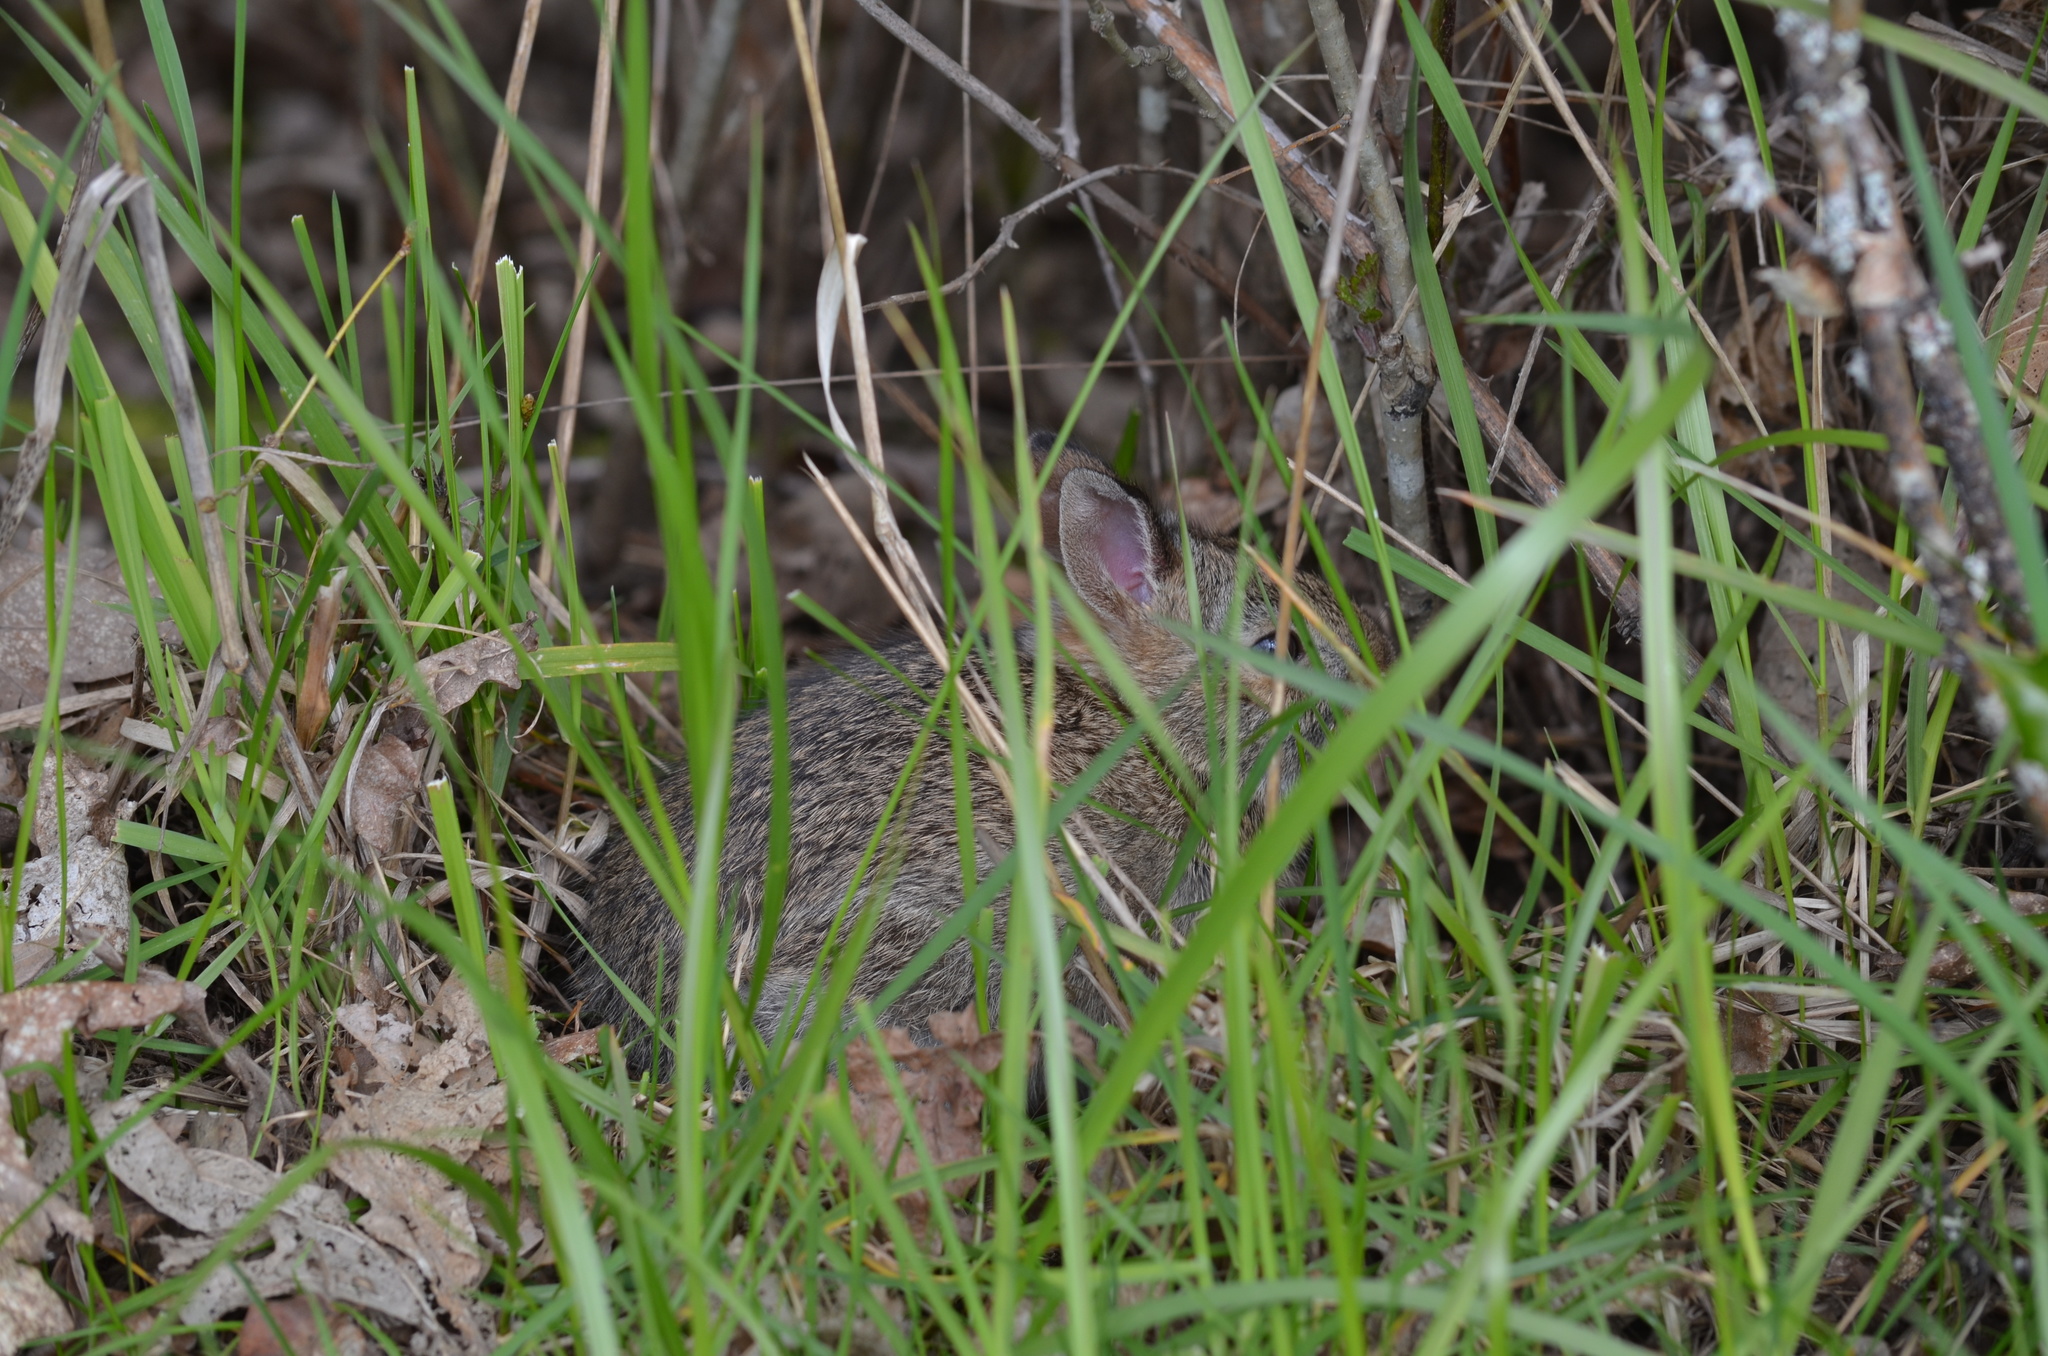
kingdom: Animalia
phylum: Chordata
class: Mammalia
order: Lagomorpha
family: Leporidae
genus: Sylvilagus
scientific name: Sylvilagus floridanus
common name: Eastern cottontail
